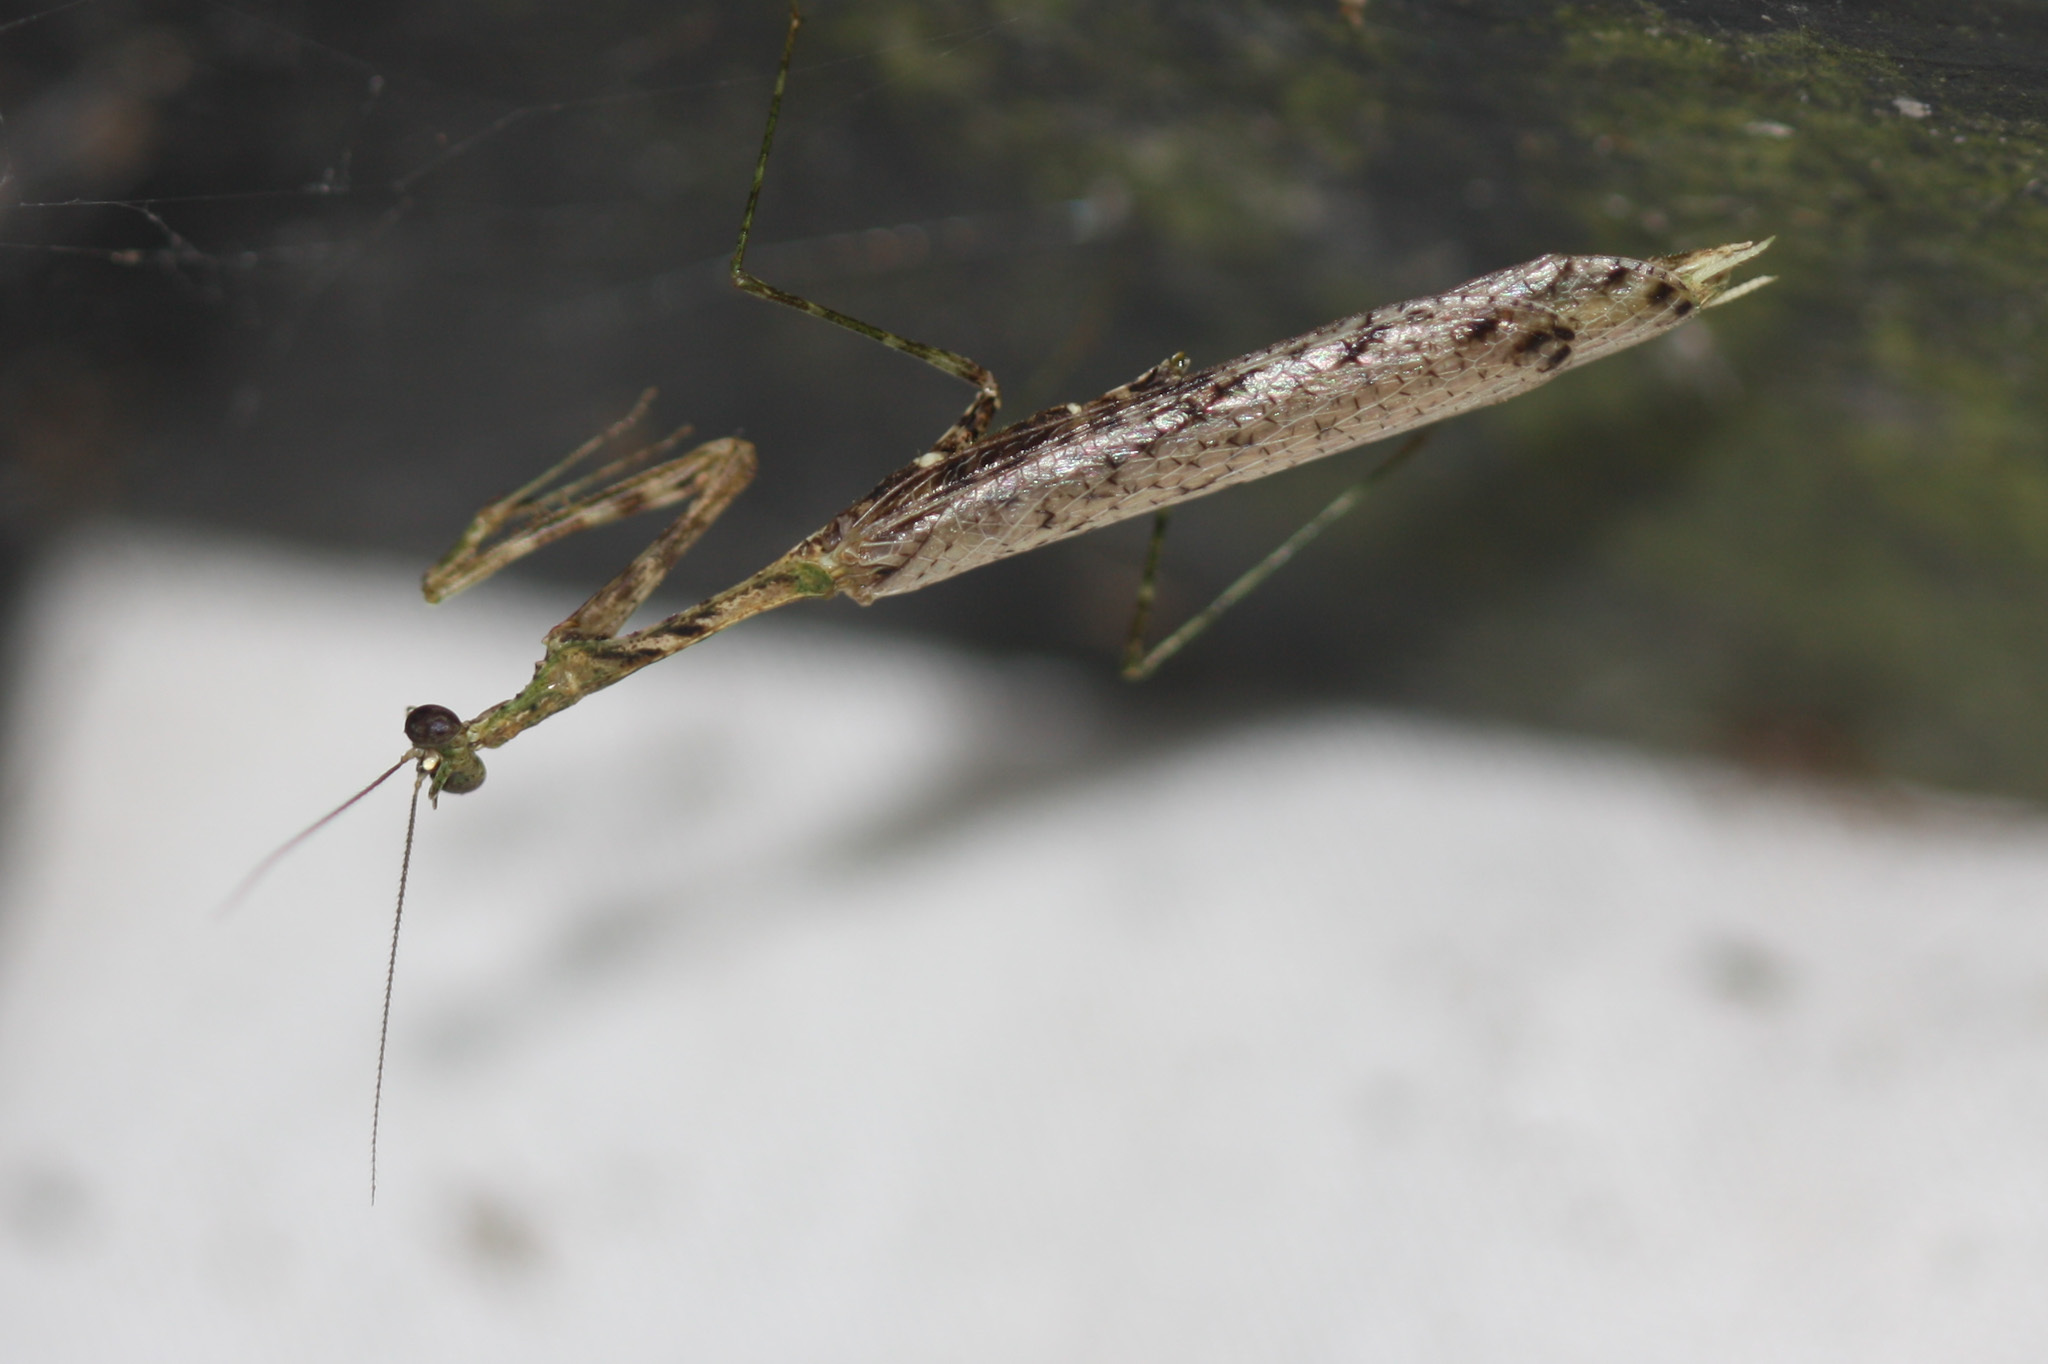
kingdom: Animalia
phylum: Arthropoda
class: Insecta
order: Mantodea
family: Thespidae
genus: Pogonogaster
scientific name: Pogonogaster tristani
